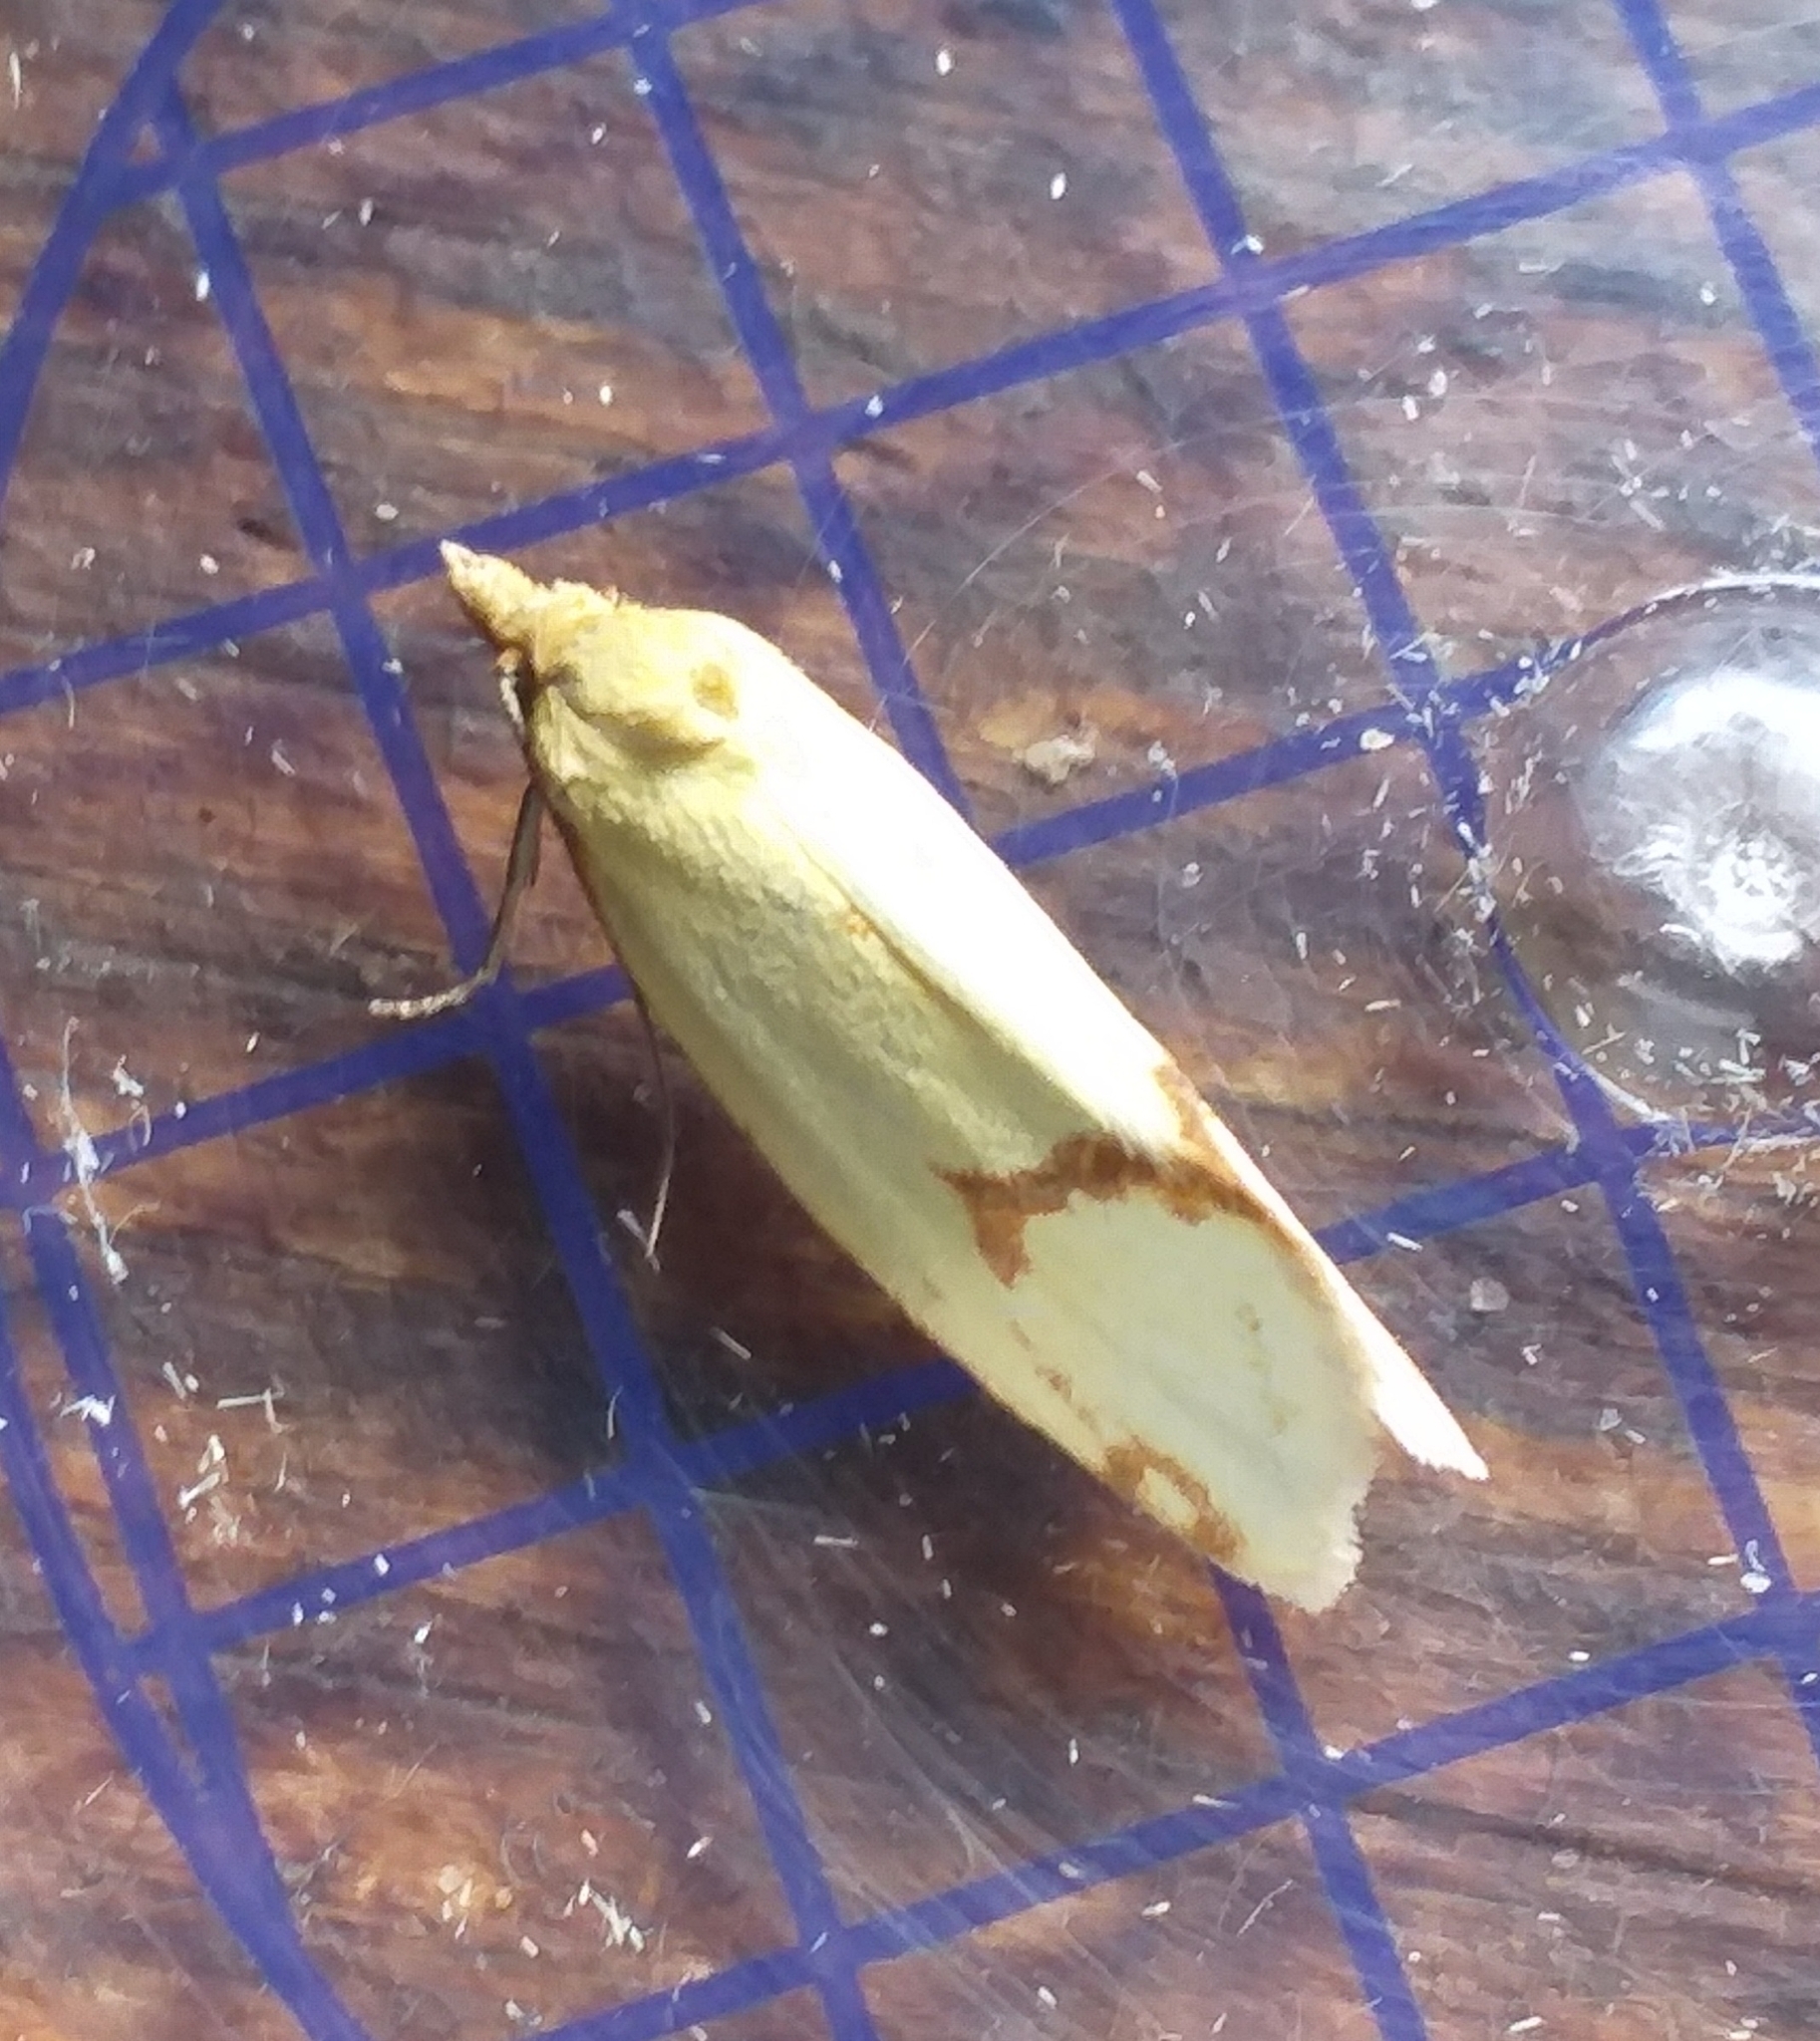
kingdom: Animalia
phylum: Arthropoda
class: Insecta
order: Lepidoptera
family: Tortricidae
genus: Agapeta
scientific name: Agapeta hamana
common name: Common yellow conch
